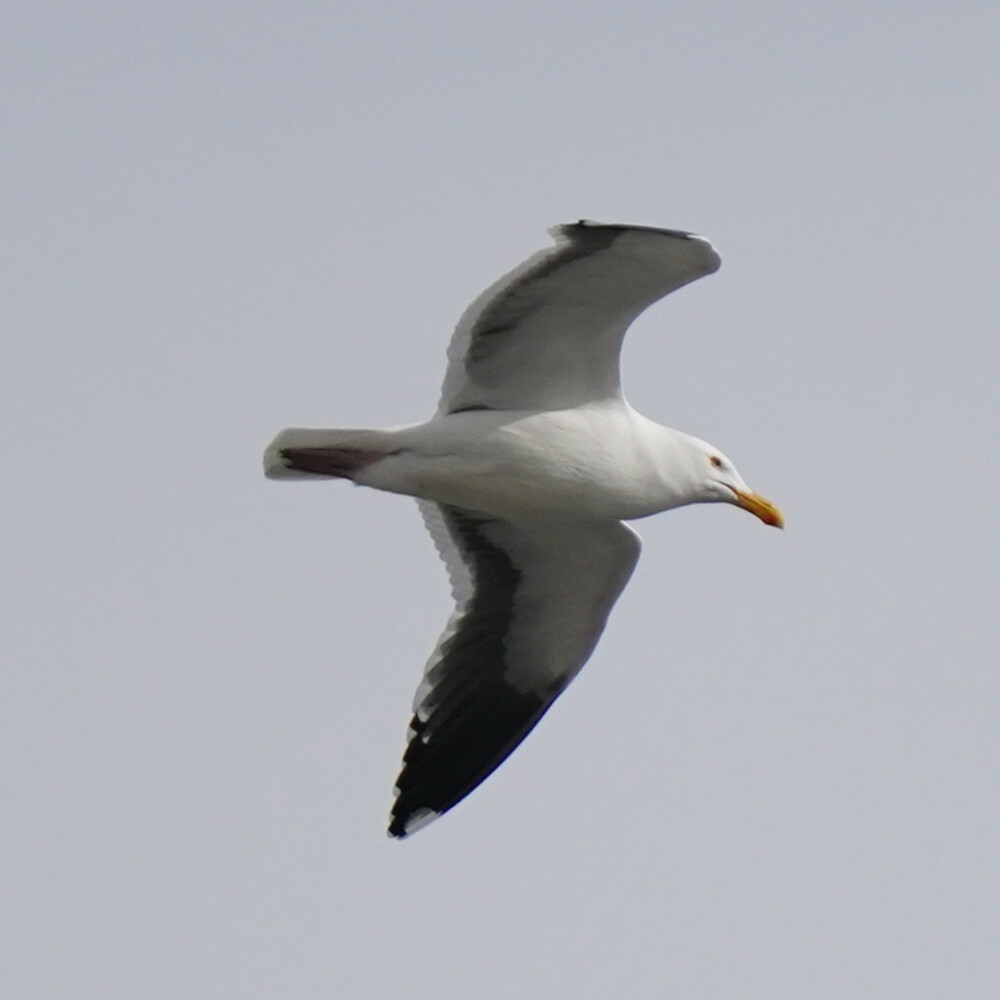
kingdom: Animalia
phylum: Chordata
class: Aves
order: Charadriiformes
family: Laridae
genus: Larus
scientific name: Larus occidentalis
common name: Western gull
